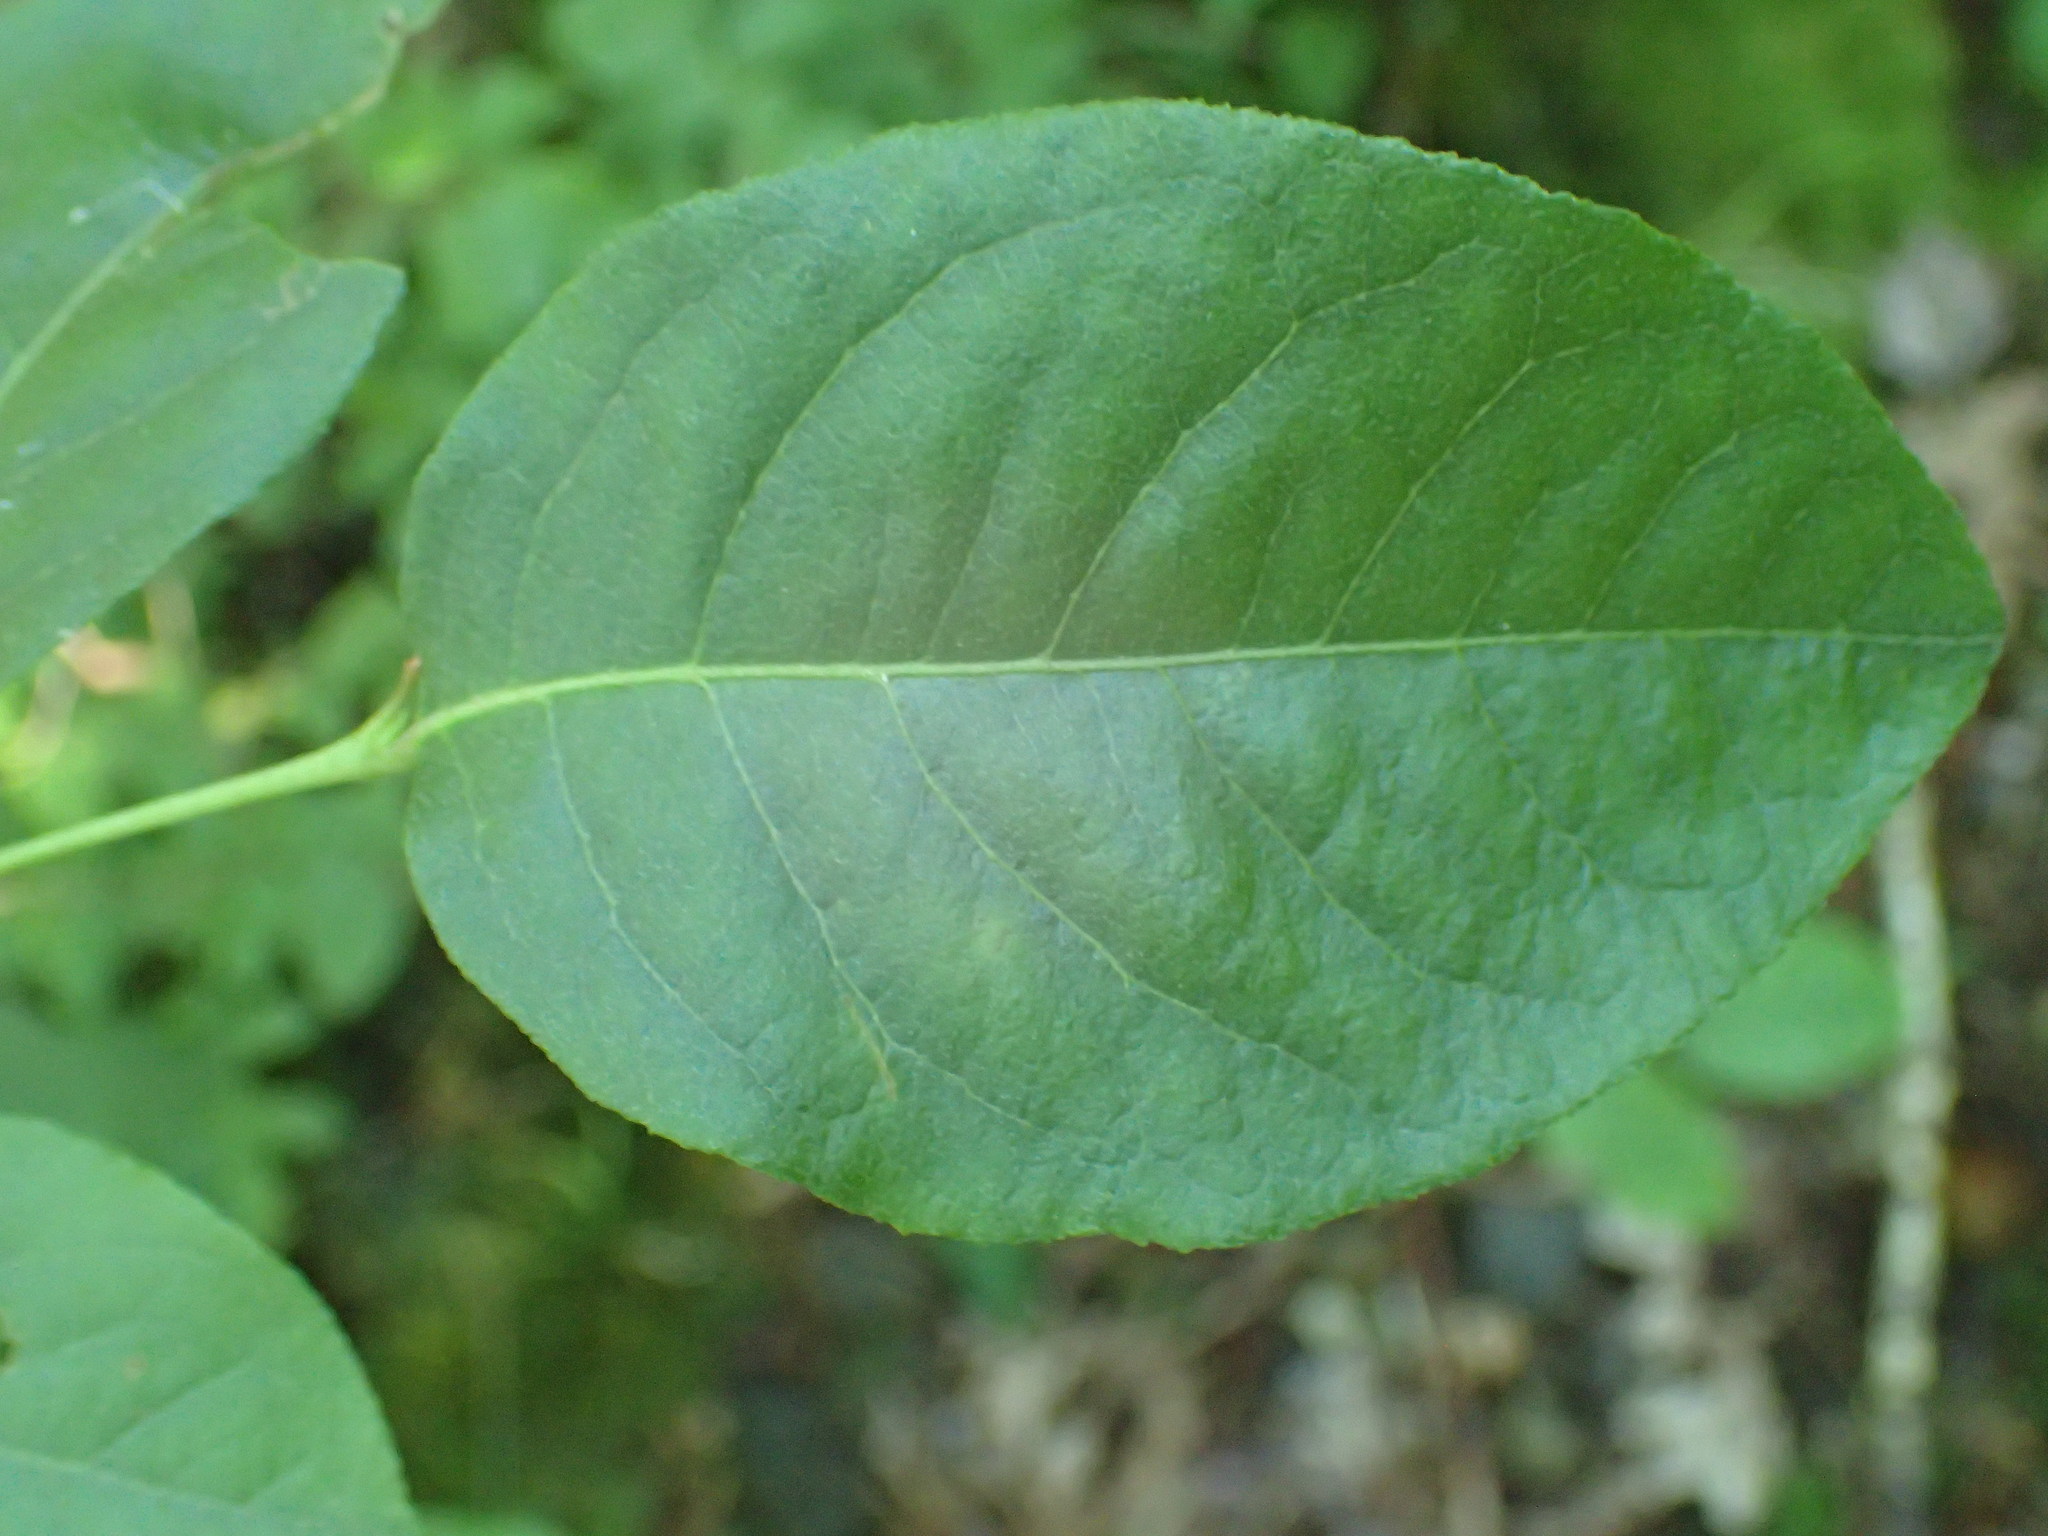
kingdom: Plantae
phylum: Tracheophyta
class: Magnoliopsida
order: Ericales
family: Ericaceae
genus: Lyonia
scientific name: Lyonia ligustrina
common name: Maleberry
